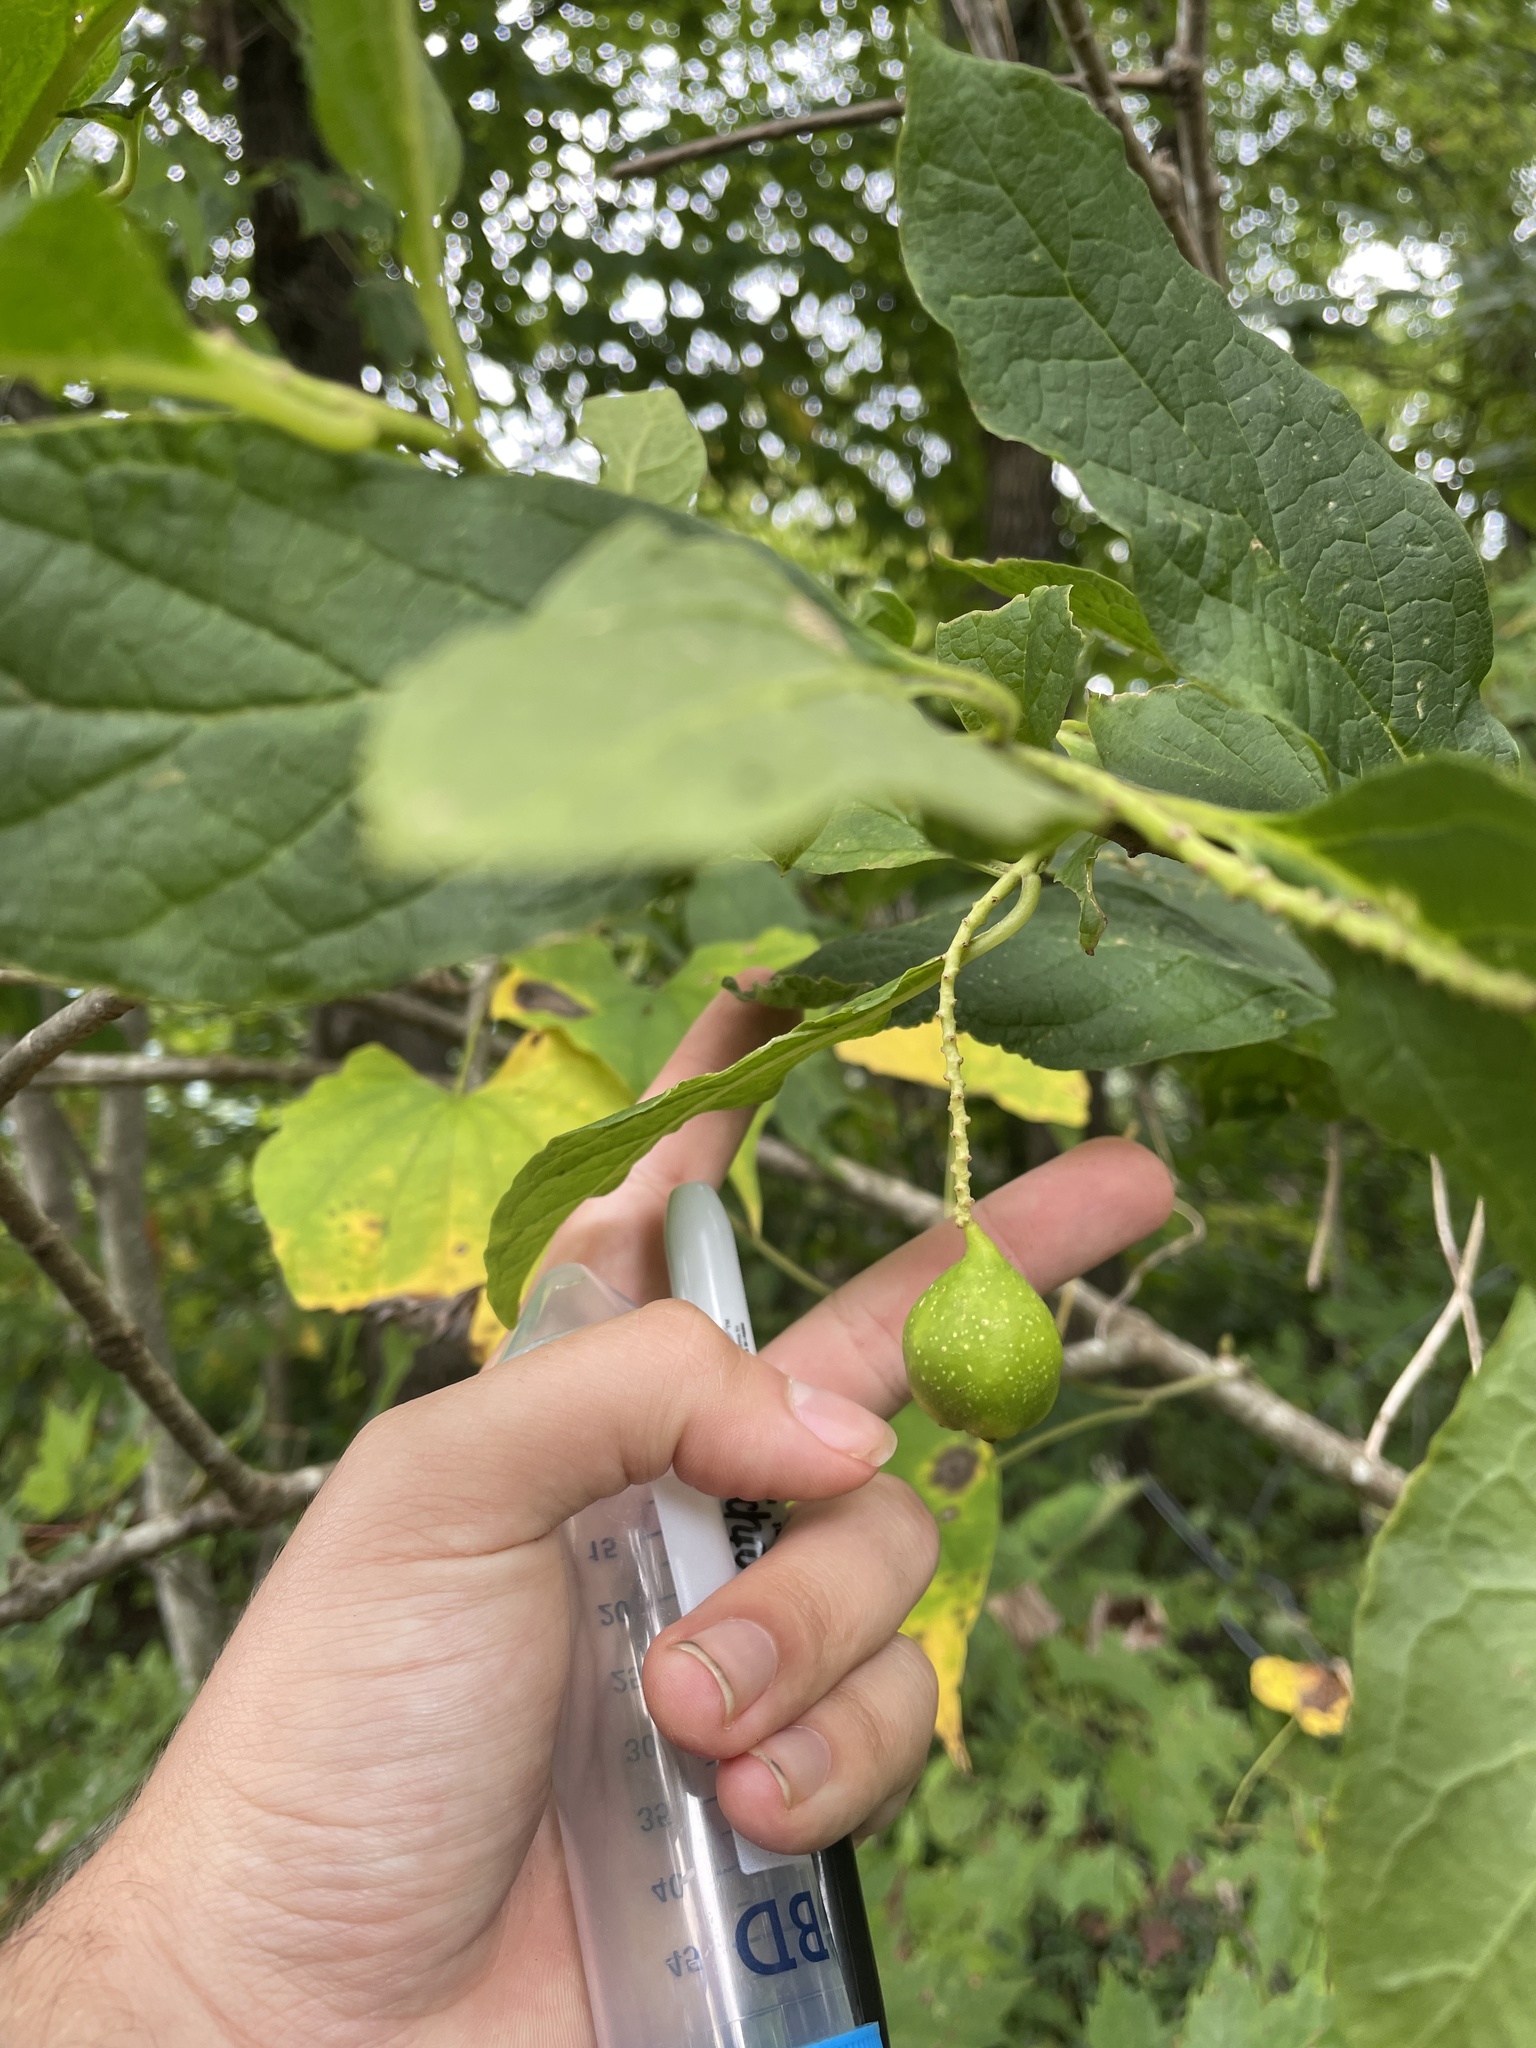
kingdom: Plantae
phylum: Tracheophyta
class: Magnoliopsida
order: Santalales
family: Cervantesiaceae
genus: Pyrularia
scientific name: Pyrularia pubera
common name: Oilnut
